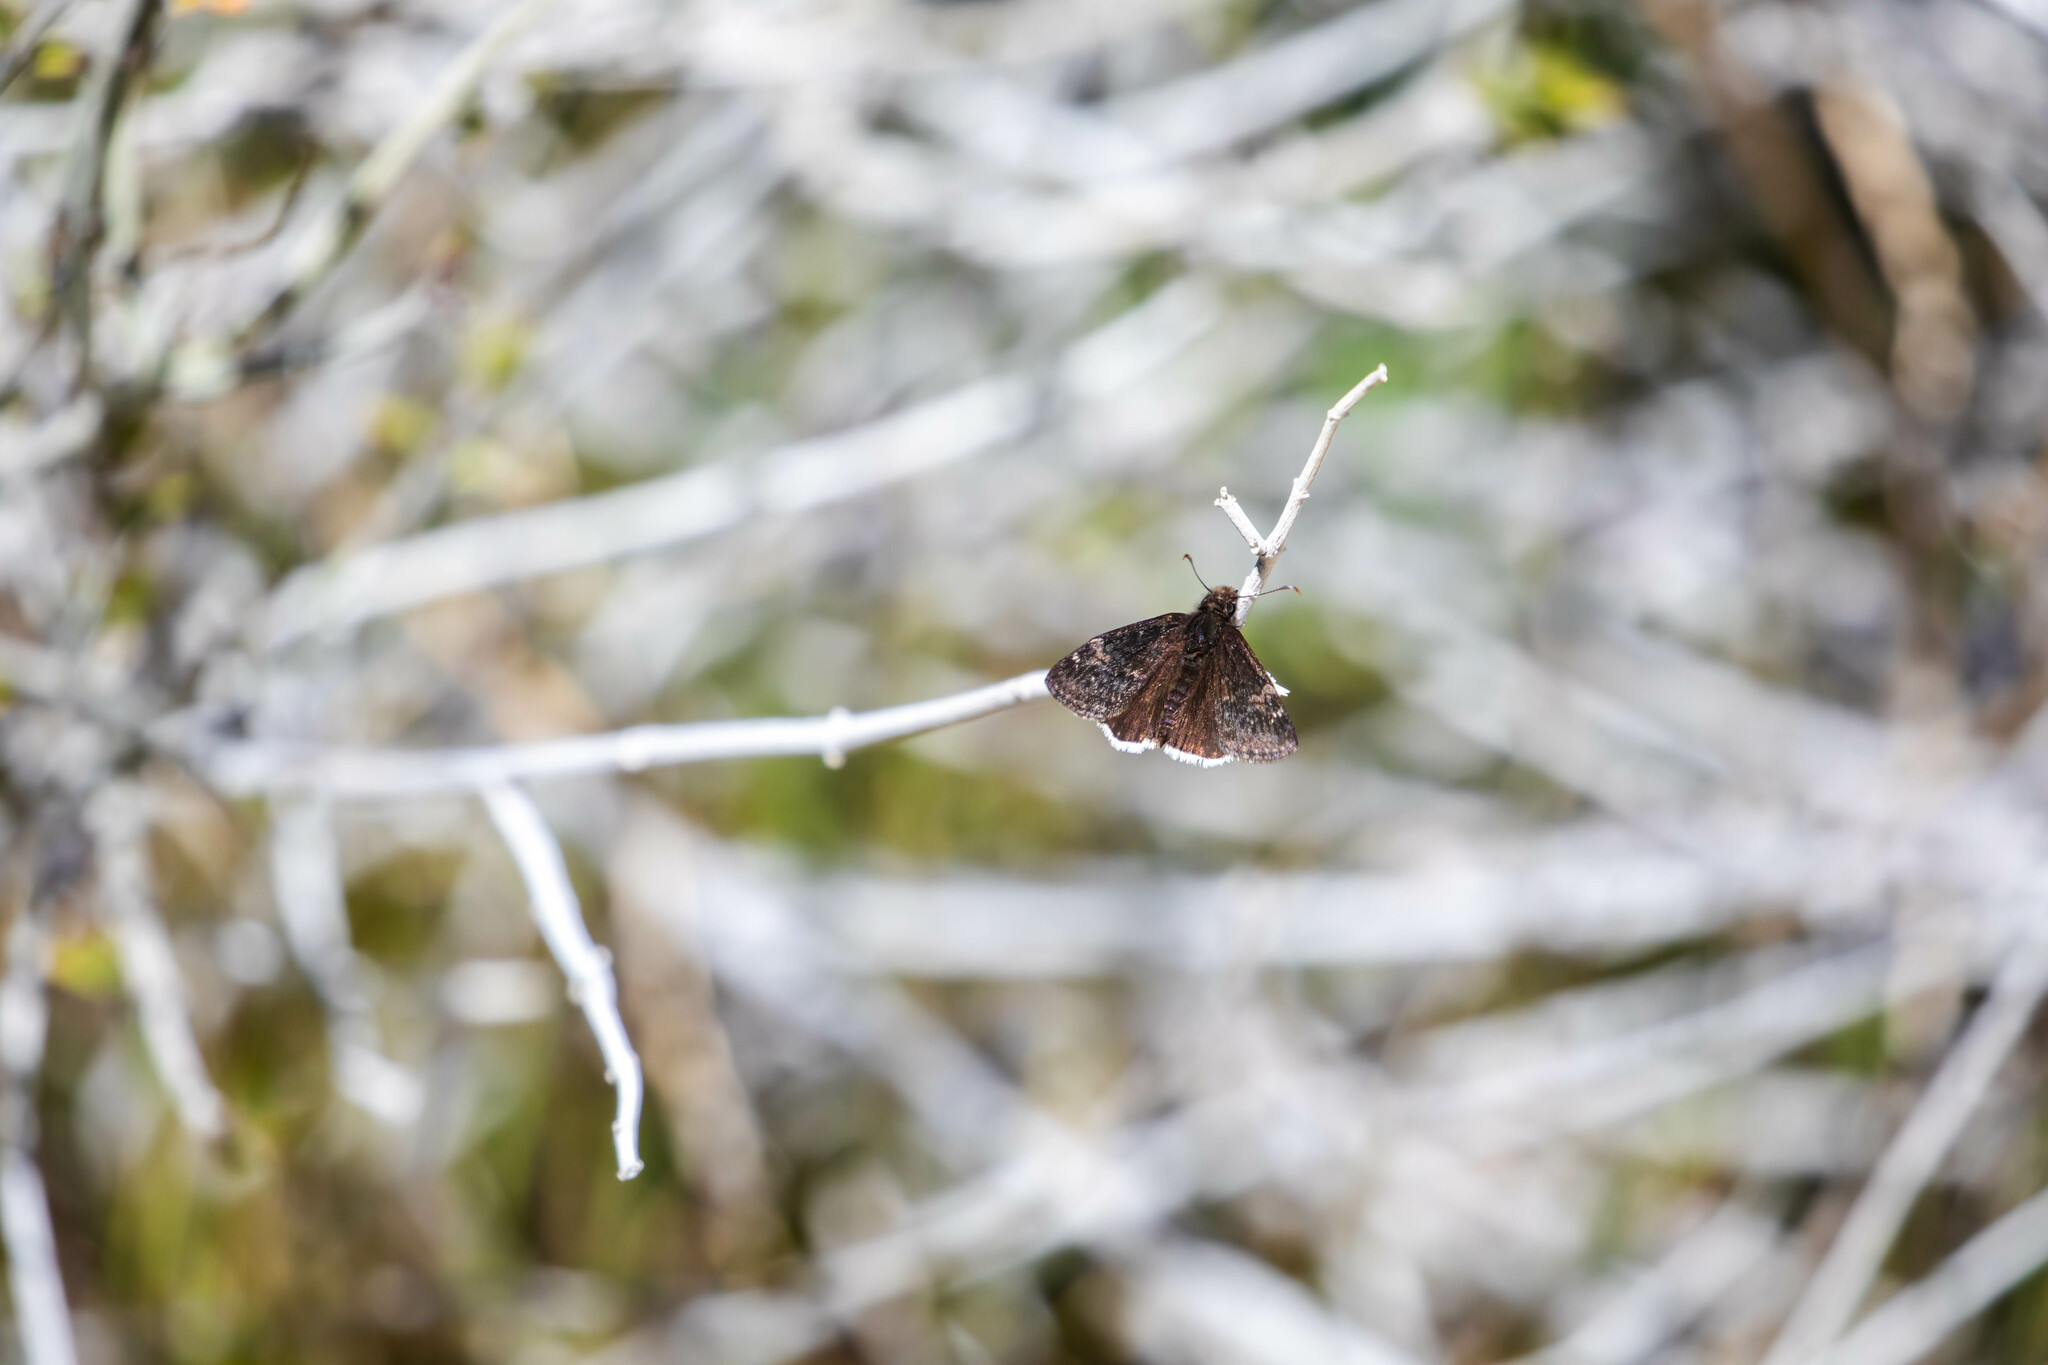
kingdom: Animalia
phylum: Arthropoda
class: Insecta
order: Lepidoptera
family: Hesperiidae
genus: Erynnis
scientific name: Erynnis funeralis
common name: Funereal duskywing
